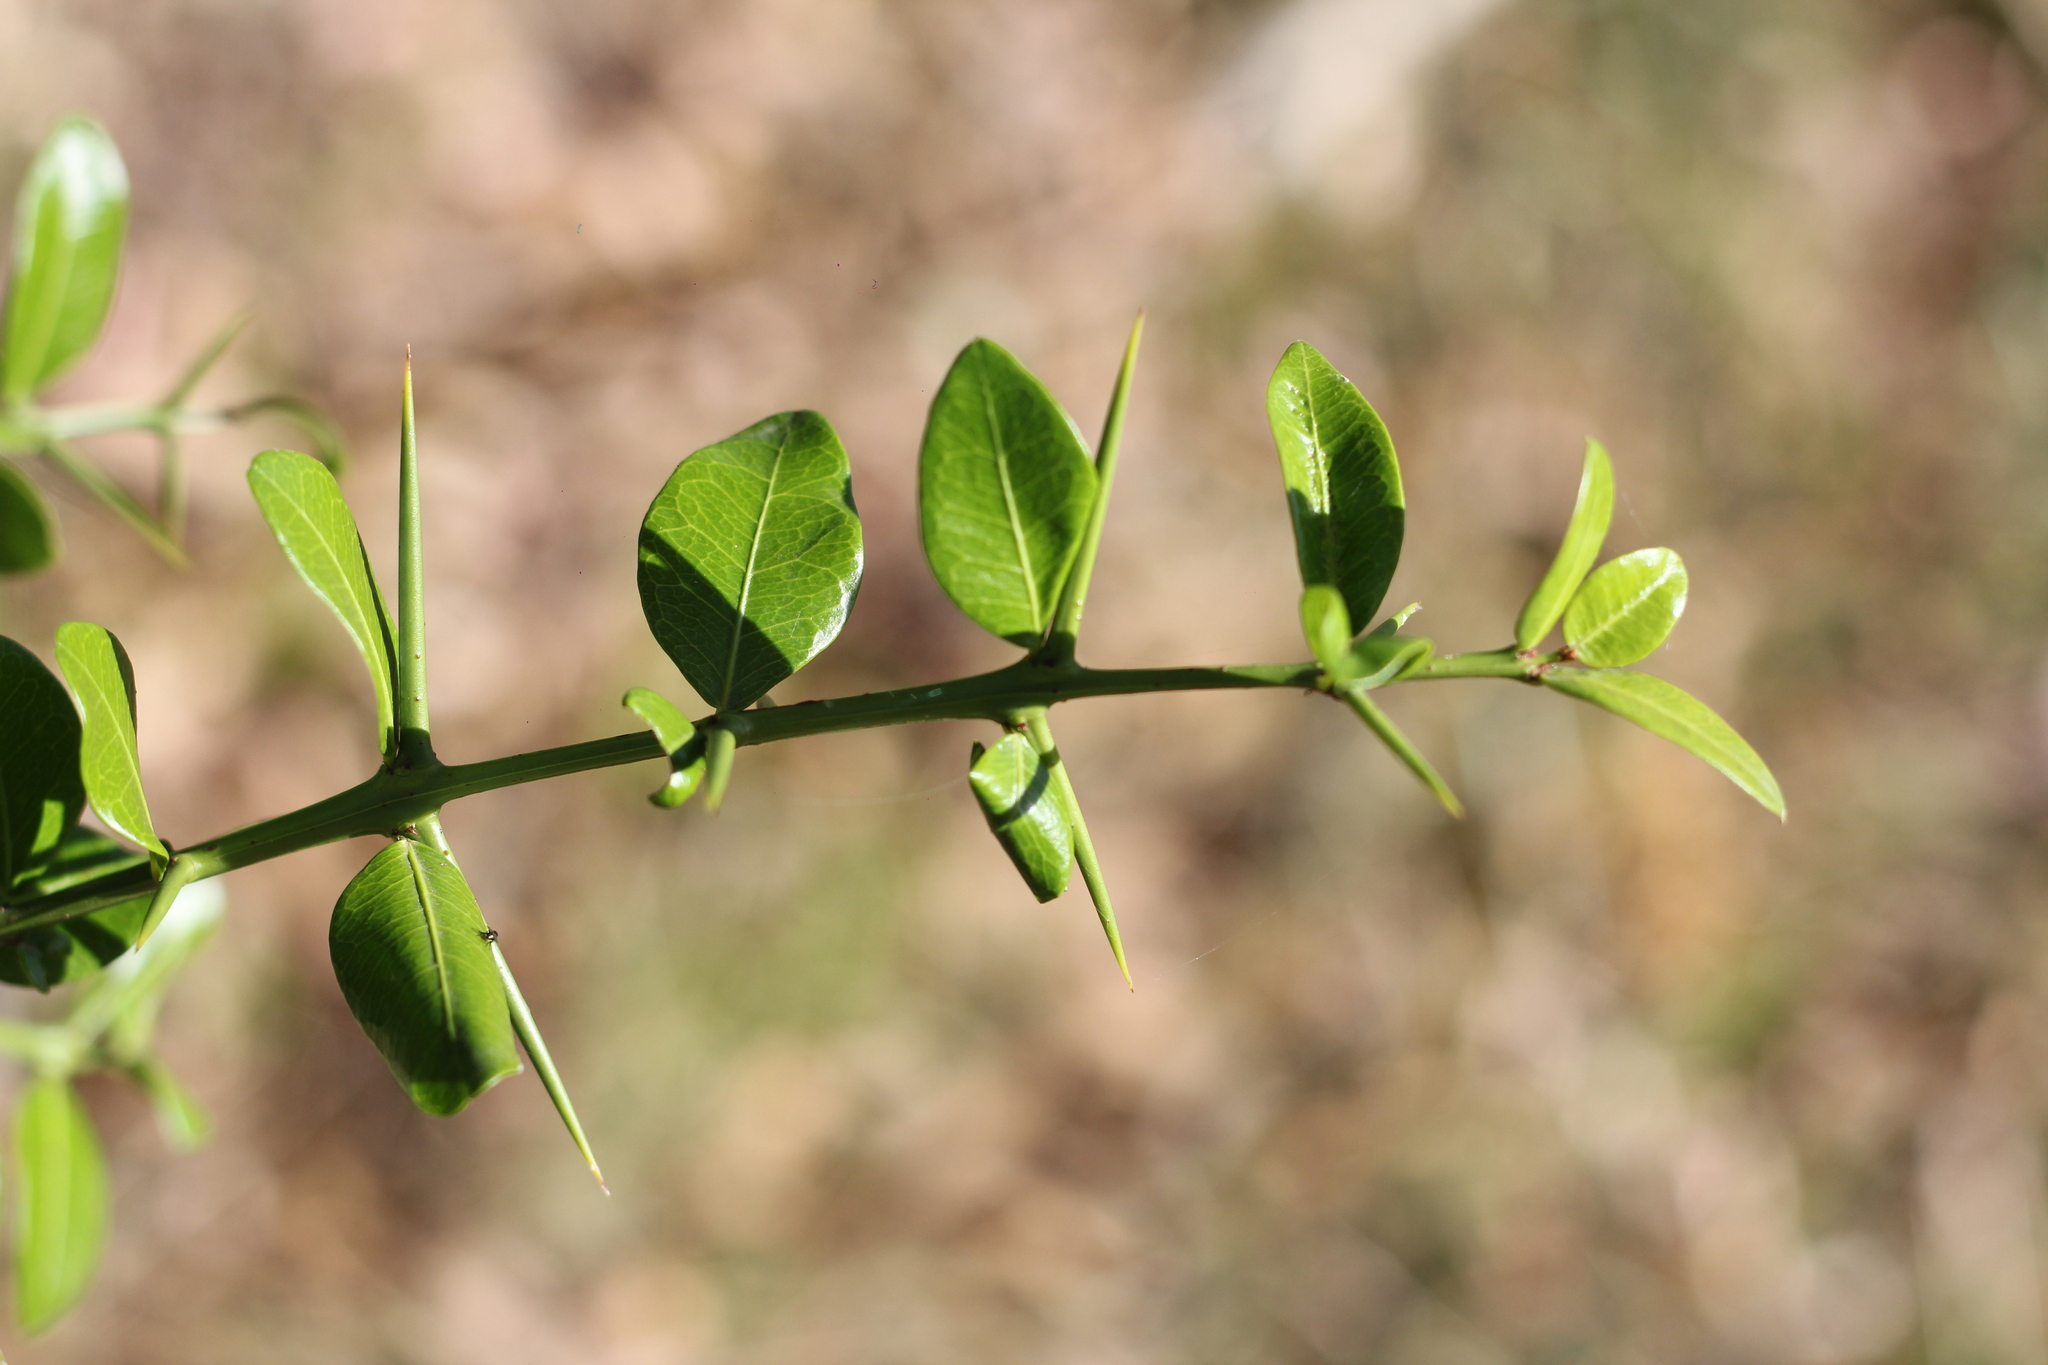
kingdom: Plantae
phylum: Tracheophyta
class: Magnoliopsida
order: Rosales
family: Rhamnaceae
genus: Scutia
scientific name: Scutia buxifolia
